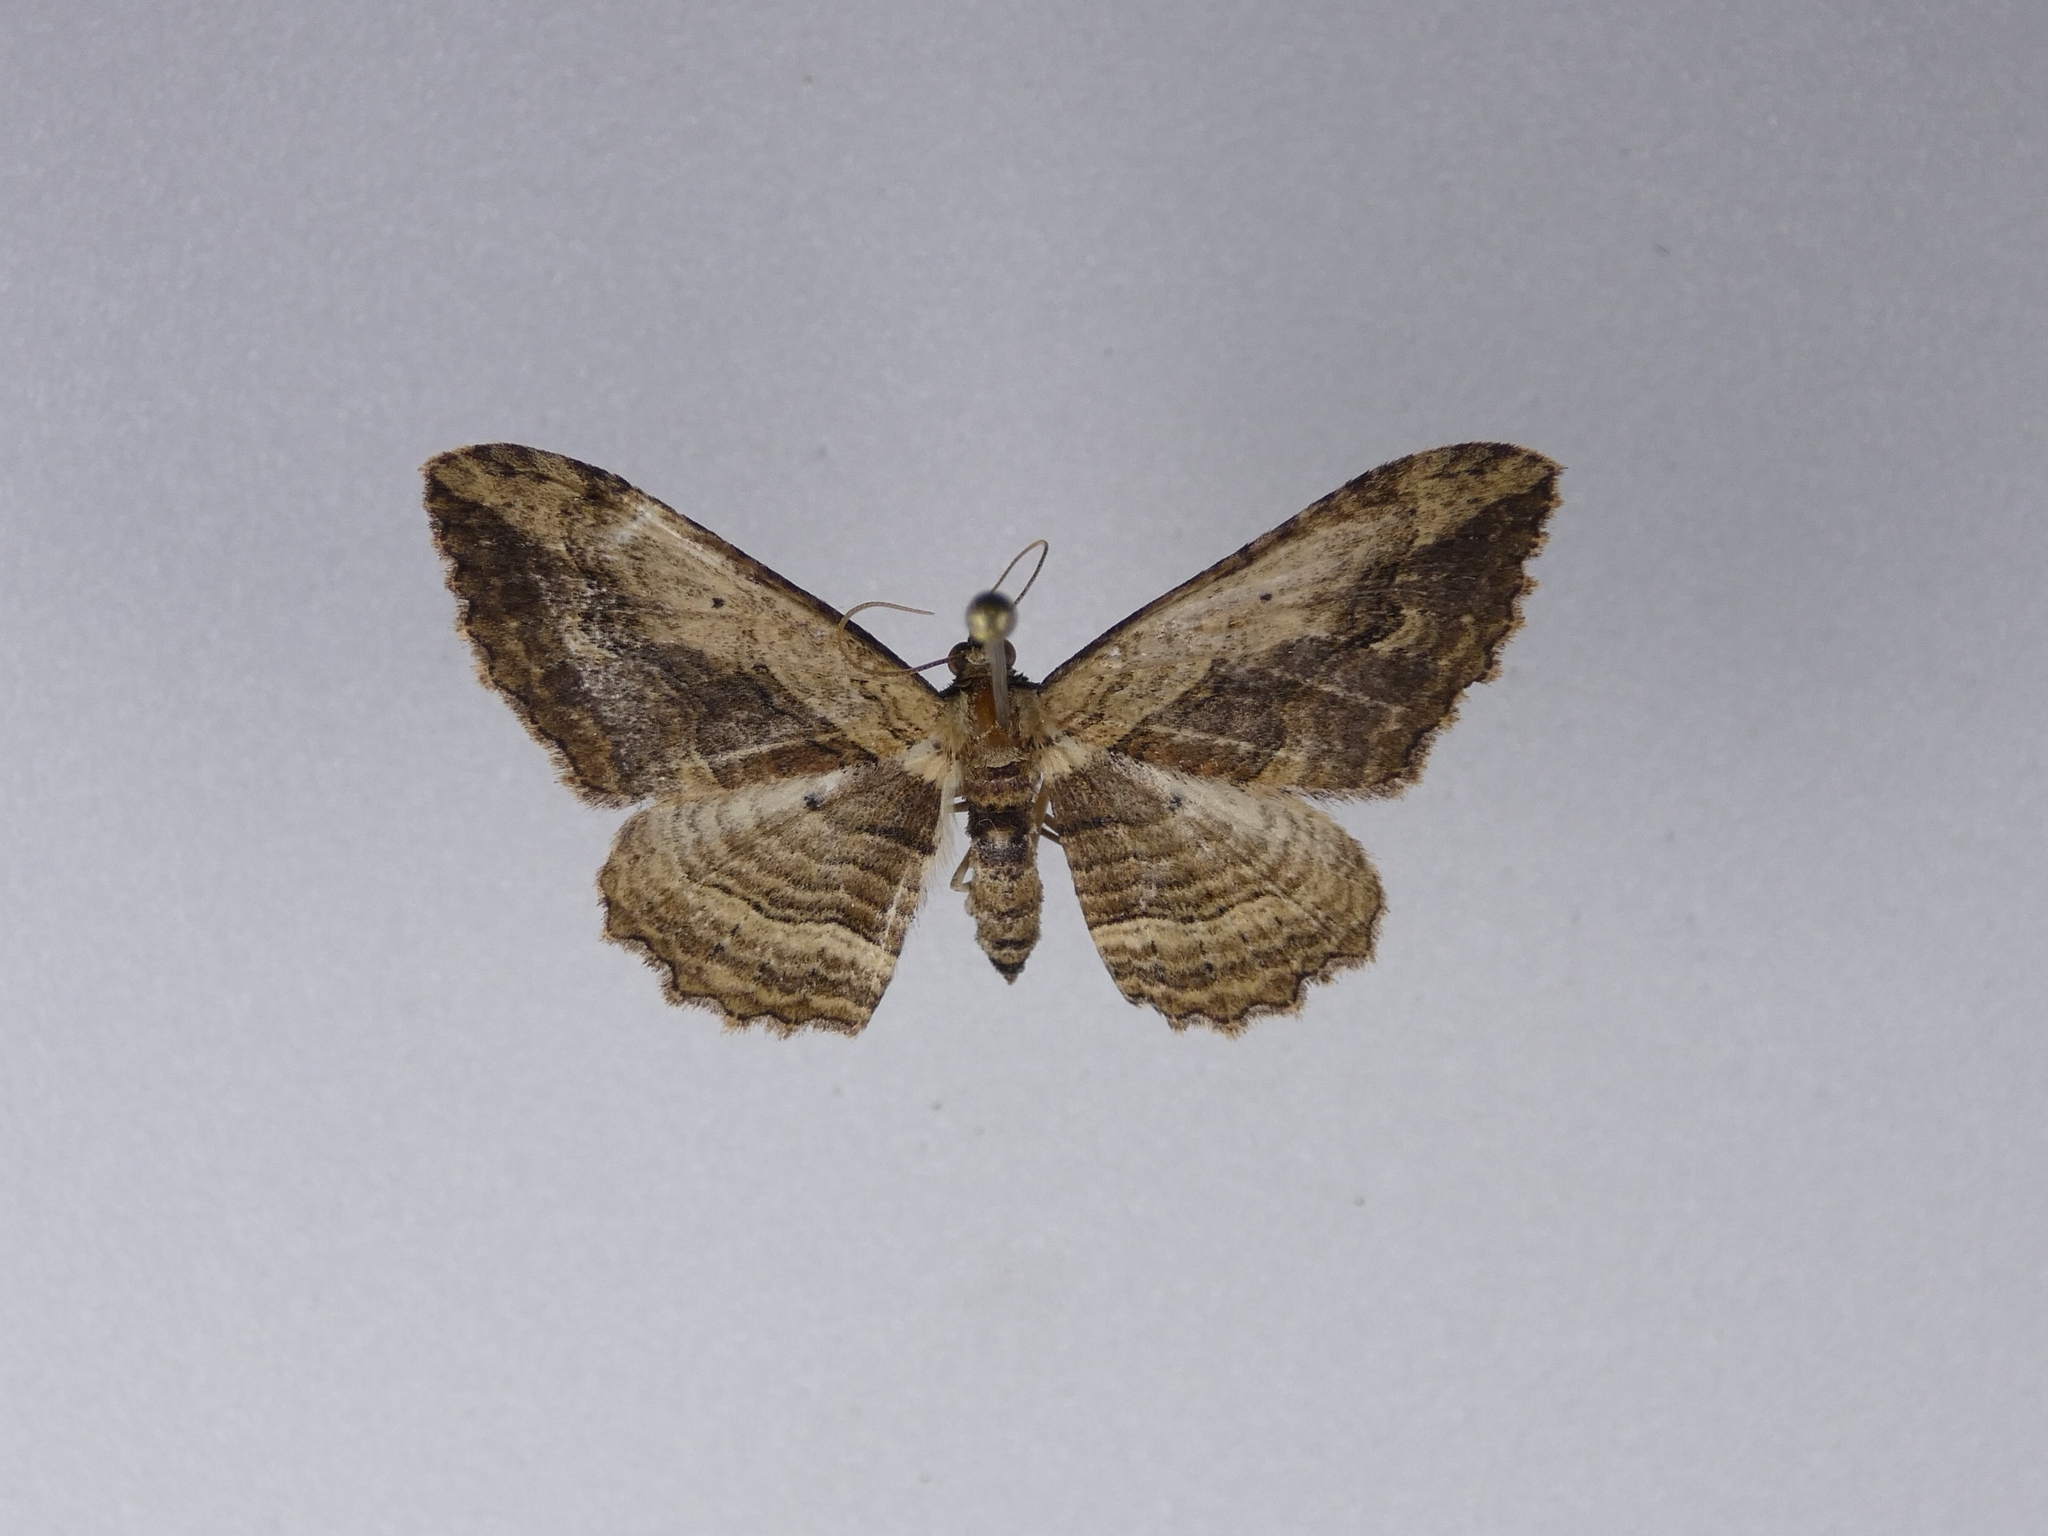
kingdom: Animalia
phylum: Arthropoda
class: Insecta
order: Lepidoptera
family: Geometridae
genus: Austrocidaria
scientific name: Austrocidaria bipartita
